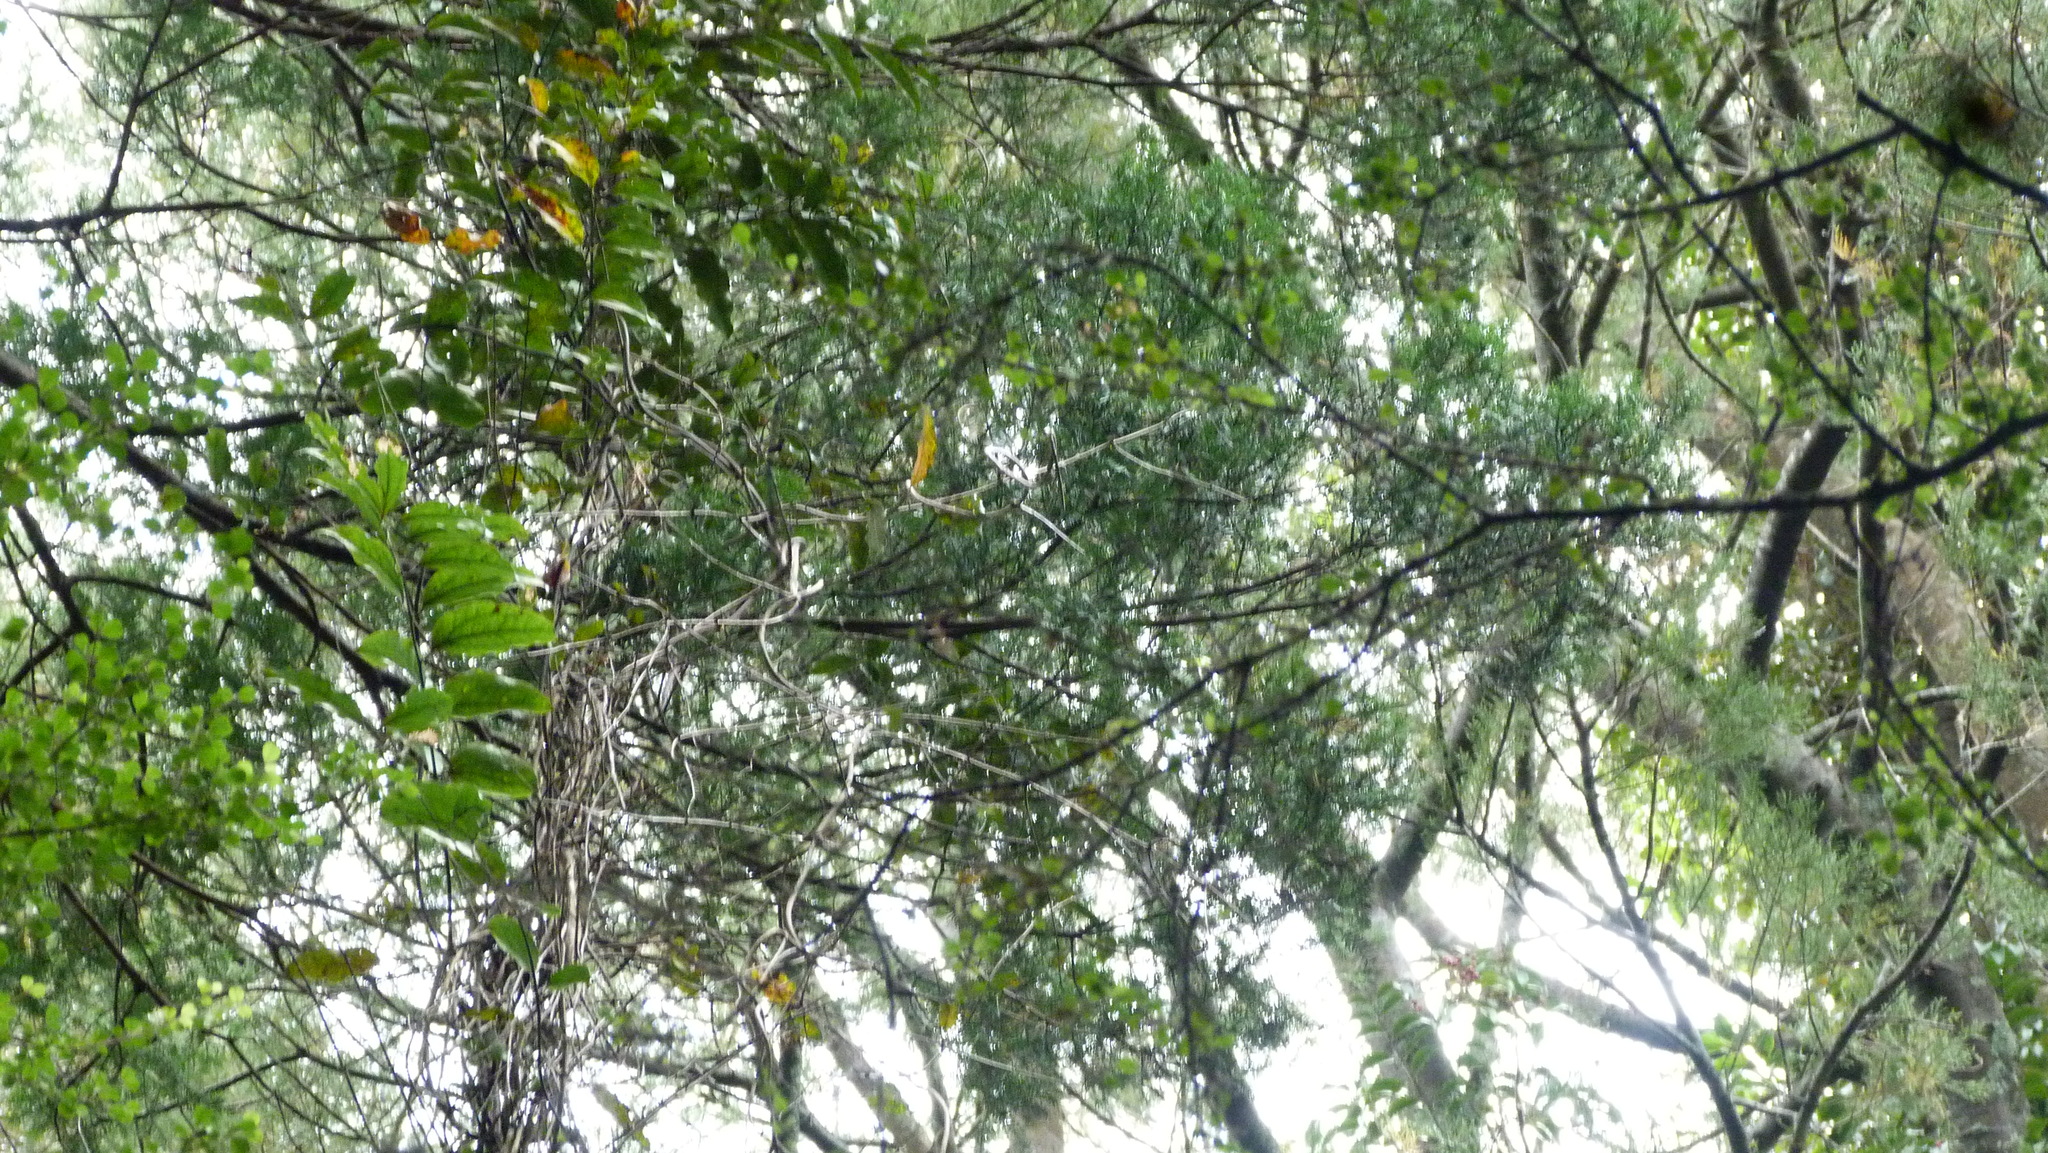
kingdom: Plantae
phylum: Tracheophyta
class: Pinopsida
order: Pinales
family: Podocarpaceae
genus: Prumnopitys
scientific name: Prumnopitys taxifolia
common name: Matai
